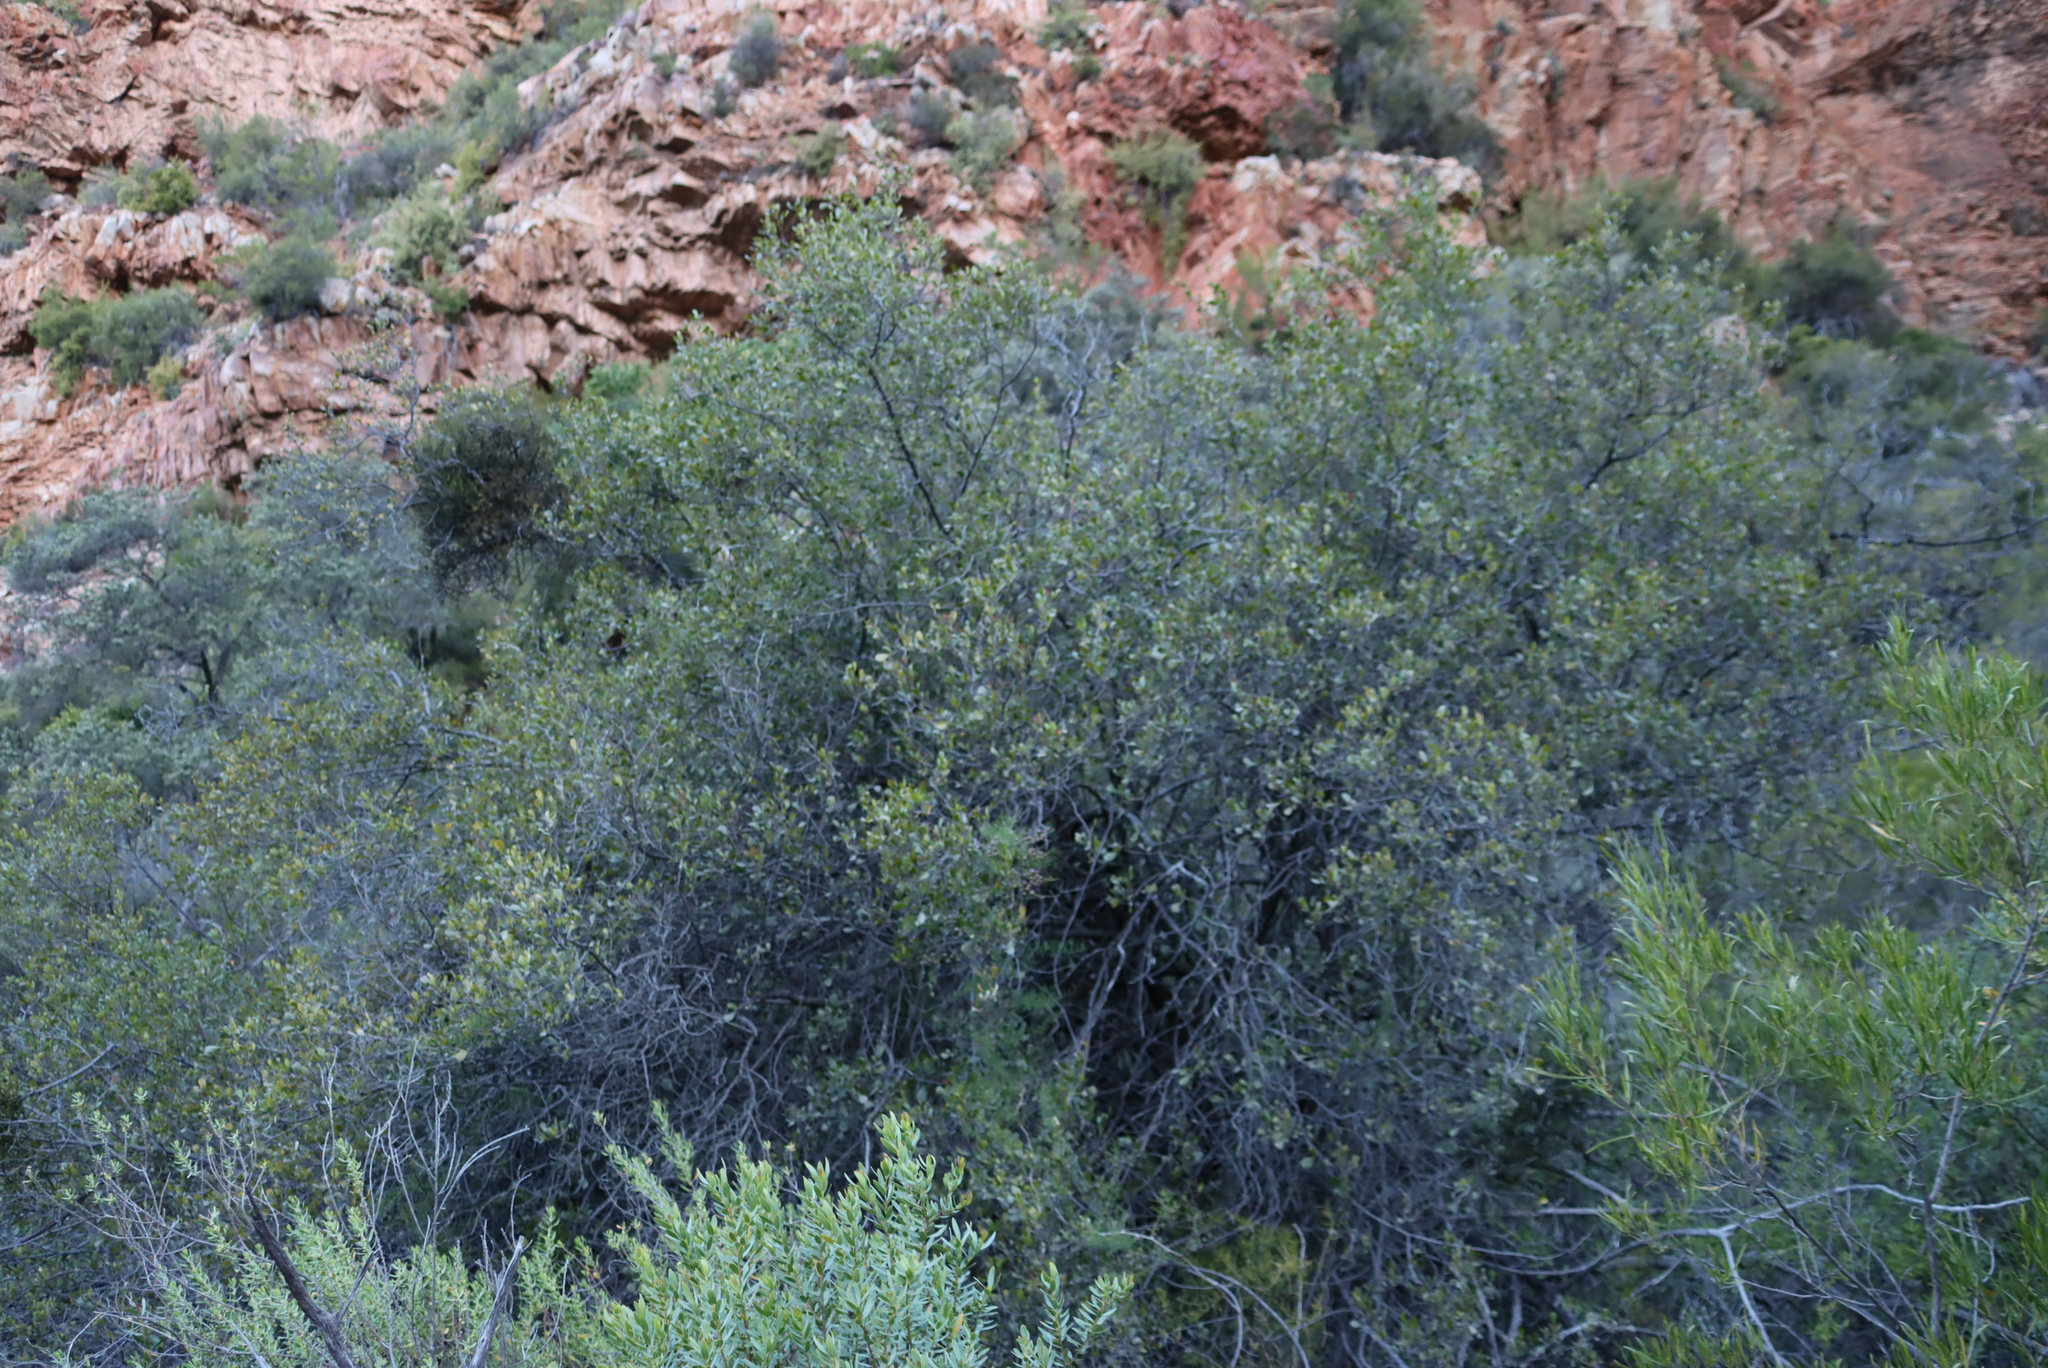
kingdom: Plantae
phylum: Tracheophyta
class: Magnoliopsida
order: Sapindales
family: Anacardiaceae
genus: Searsia
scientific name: Searsia pallens
